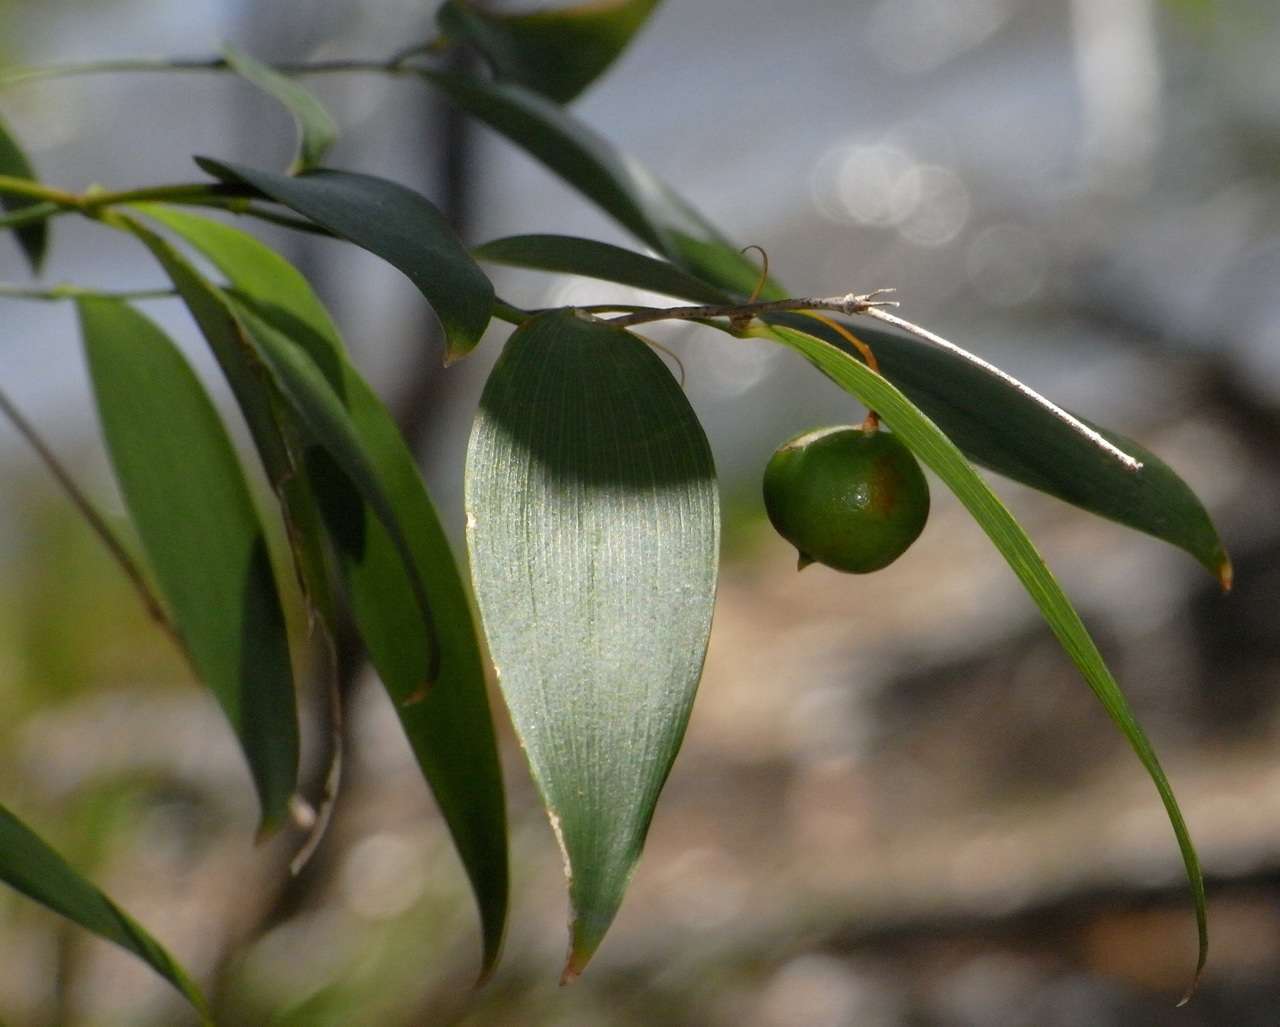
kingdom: Plantae
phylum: Tracheophyta
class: Liliopsida
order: Asparagales
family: Asparagaceae
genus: Eustrephus
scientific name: Eustrephus latifolius
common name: Orangevine
